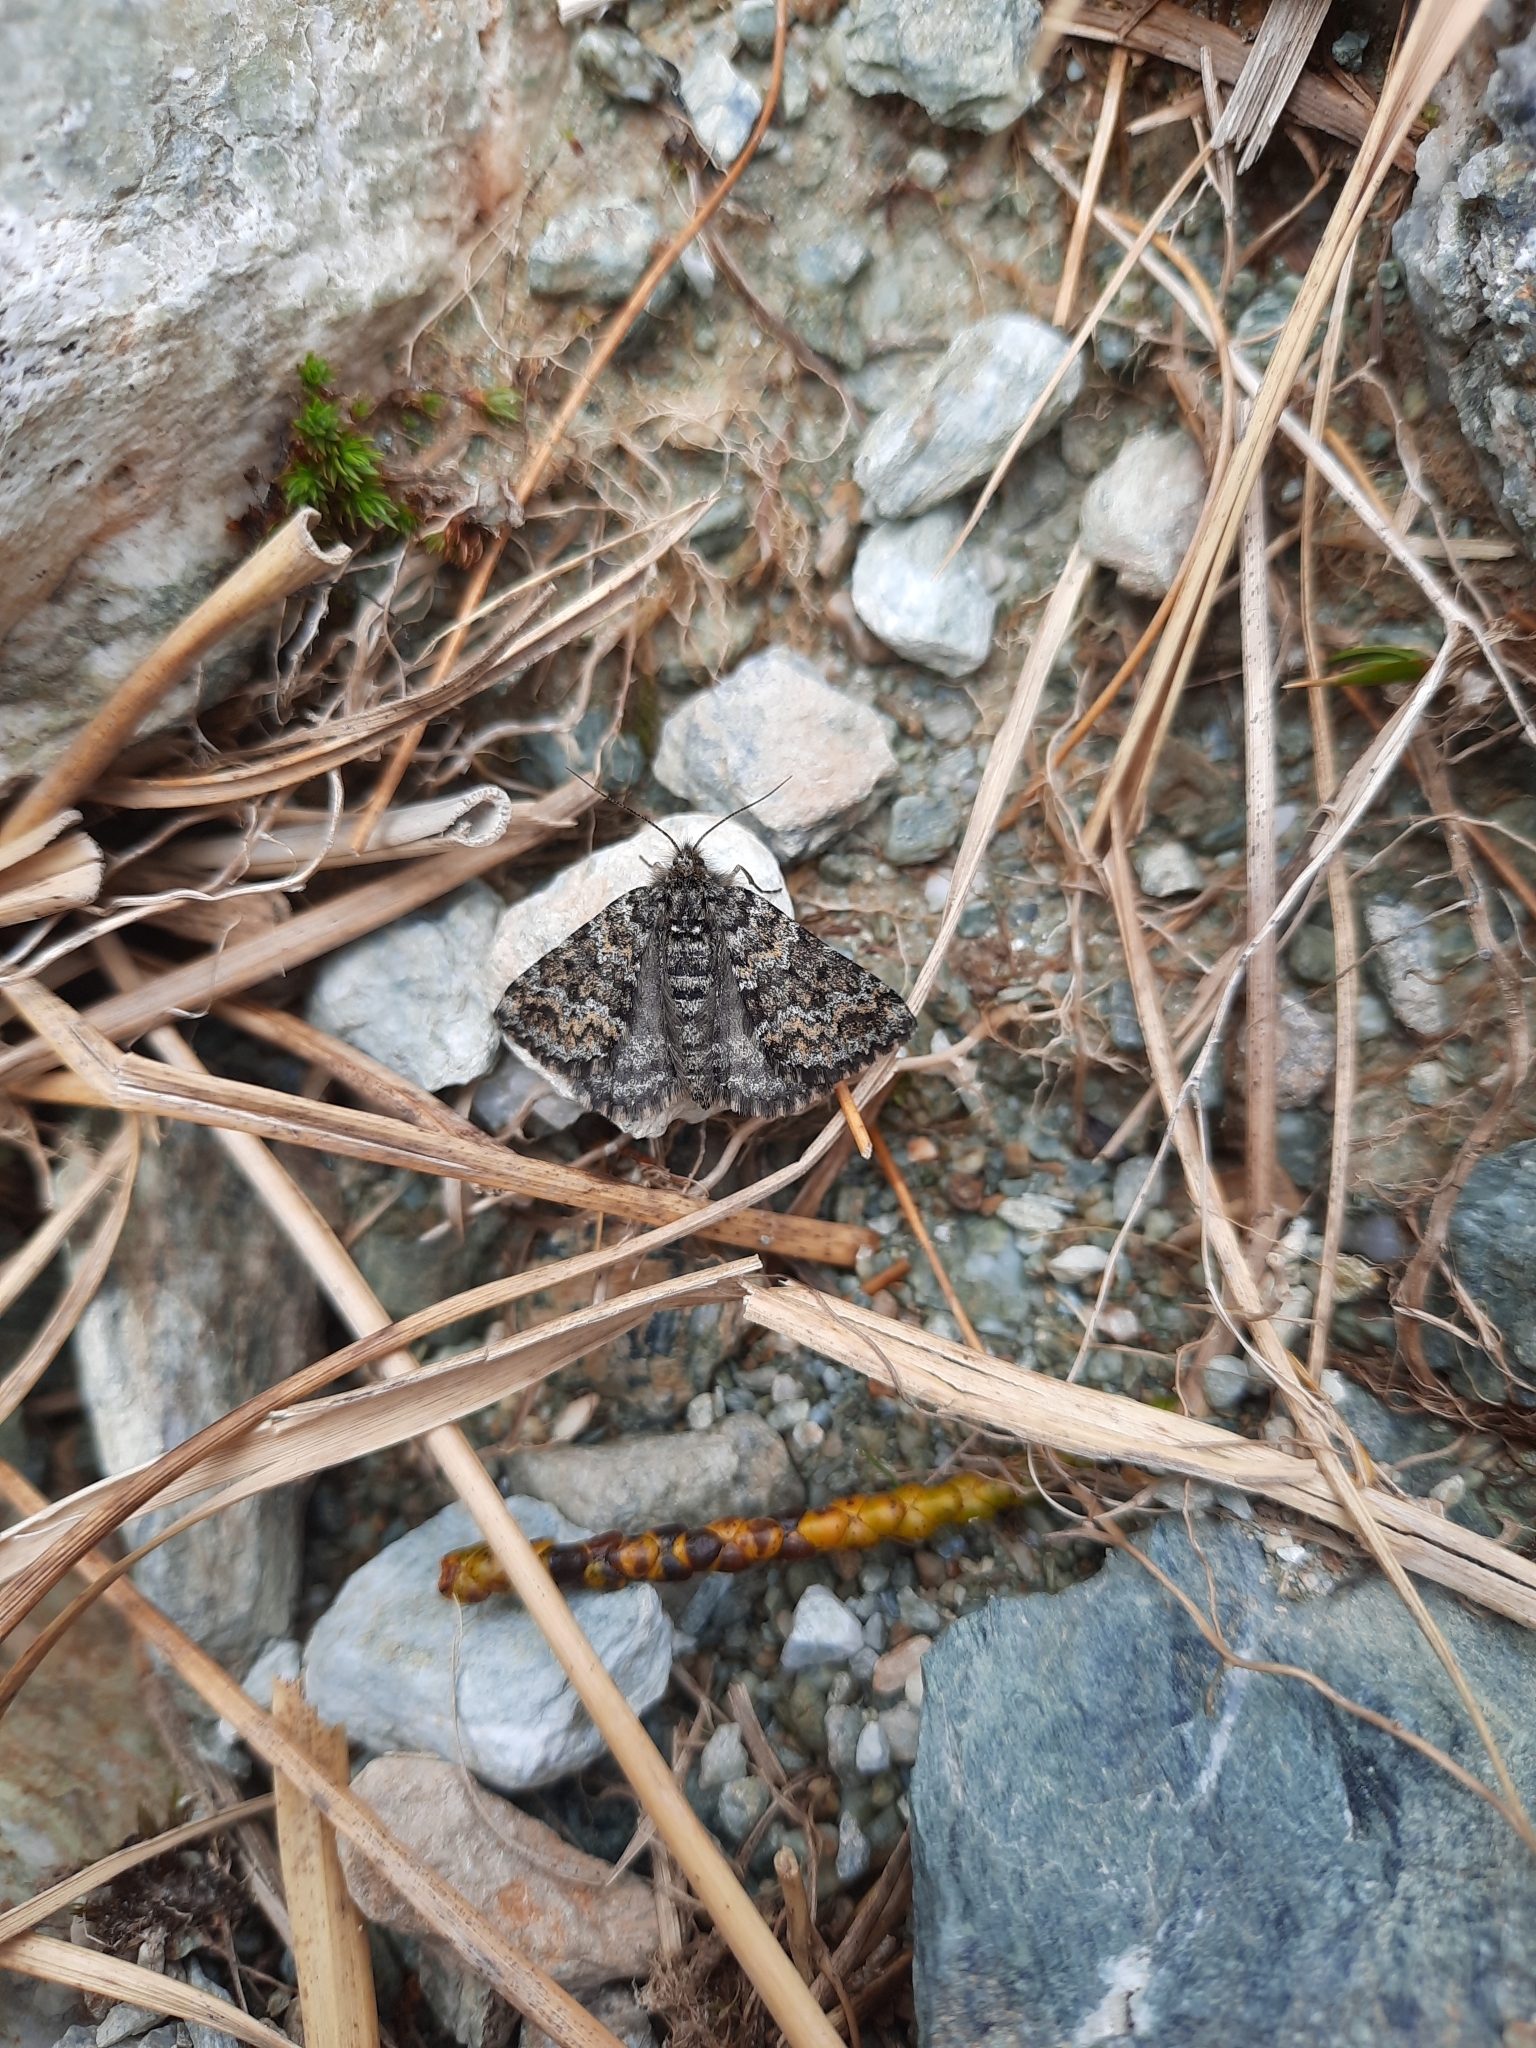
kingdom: Animalia
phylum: Arthropoda
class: Insecta
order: Lepidoptera
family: Geometridae
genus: Aponotoreas
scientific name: Aponotoreas orphnaea
